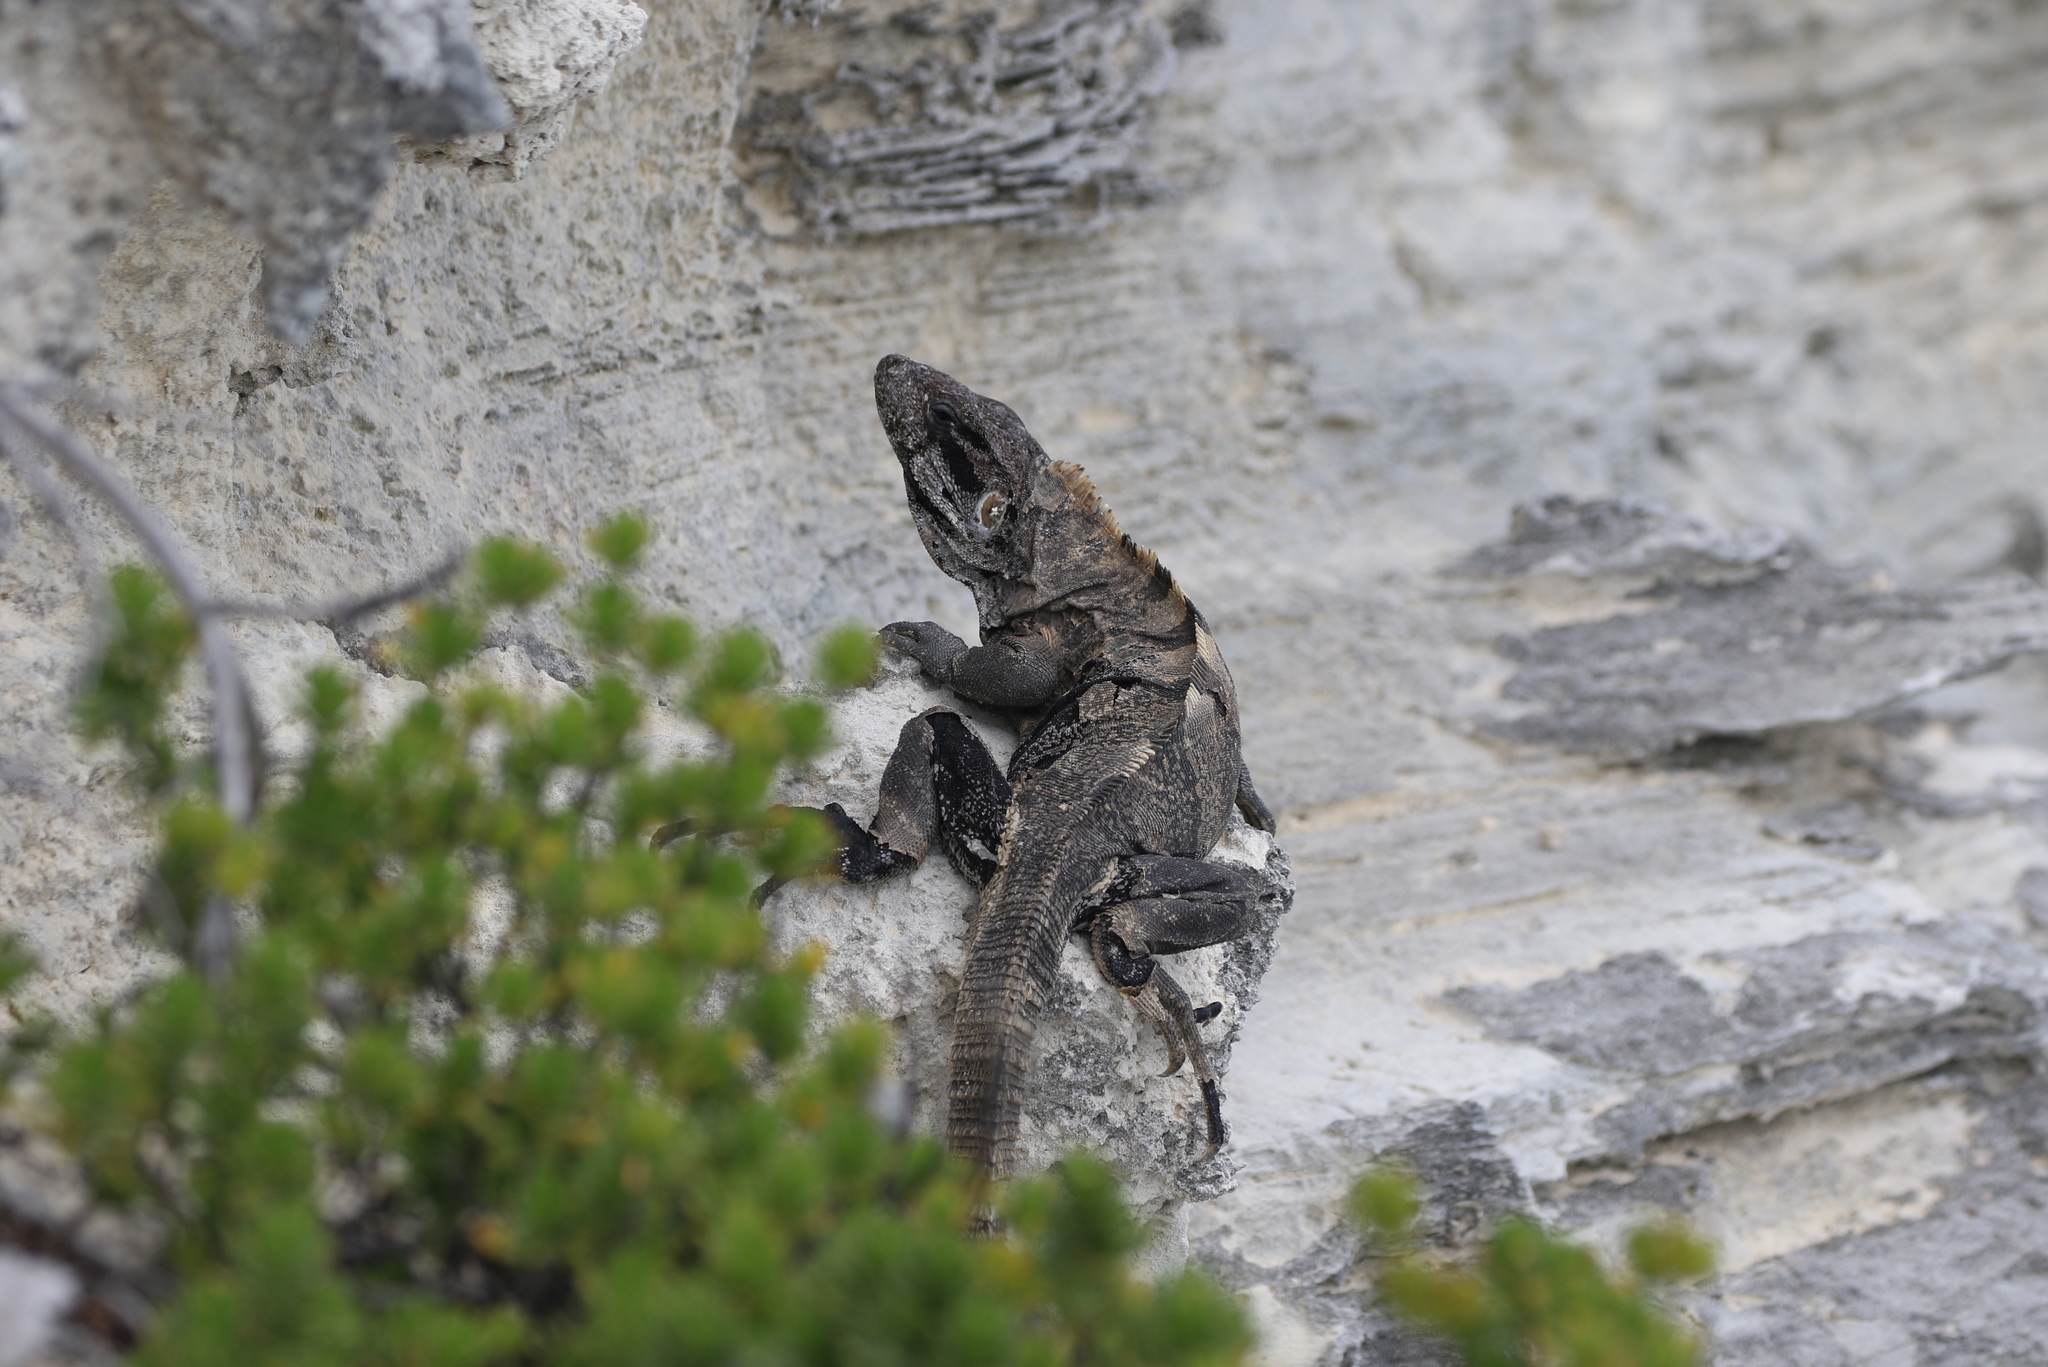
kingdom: Animalia
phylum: Chordata
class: Squamata
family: Iguanidae
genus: Ctenosaura
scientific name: Ctenosaura similis
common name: Black spiny-tailed iguana
